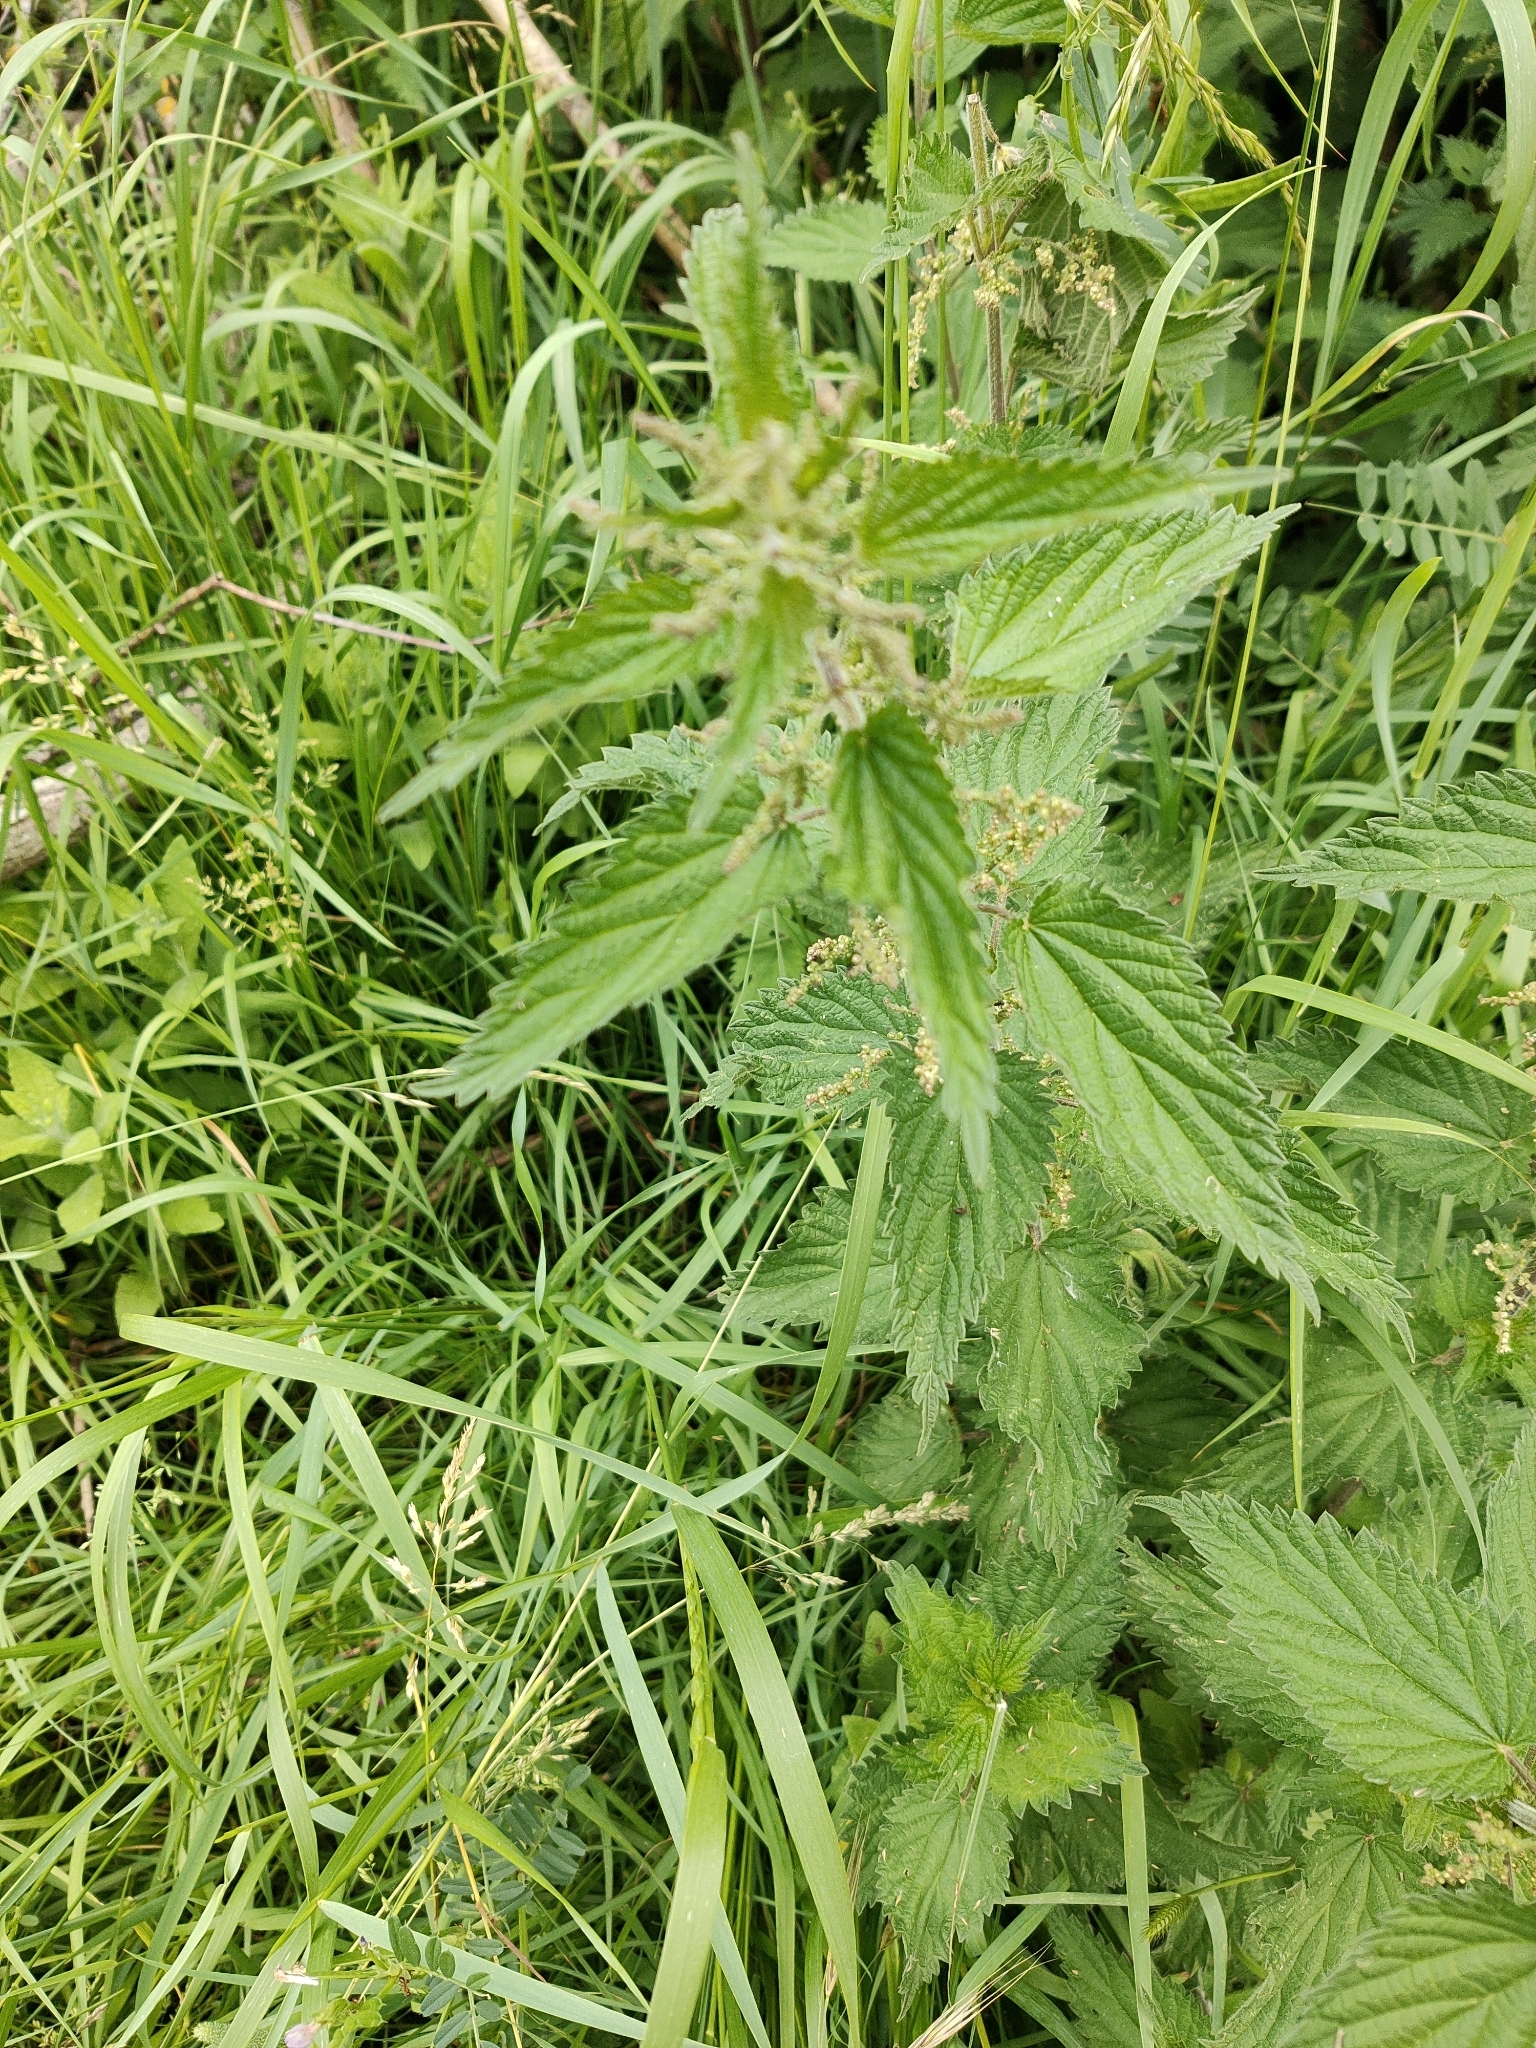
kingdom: Plantae
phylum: Tracheophyta
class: Magnoliopsida
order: Rosales
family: Urticaceae
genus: Urtica
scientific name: Urtica dioica
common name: Common nettle
